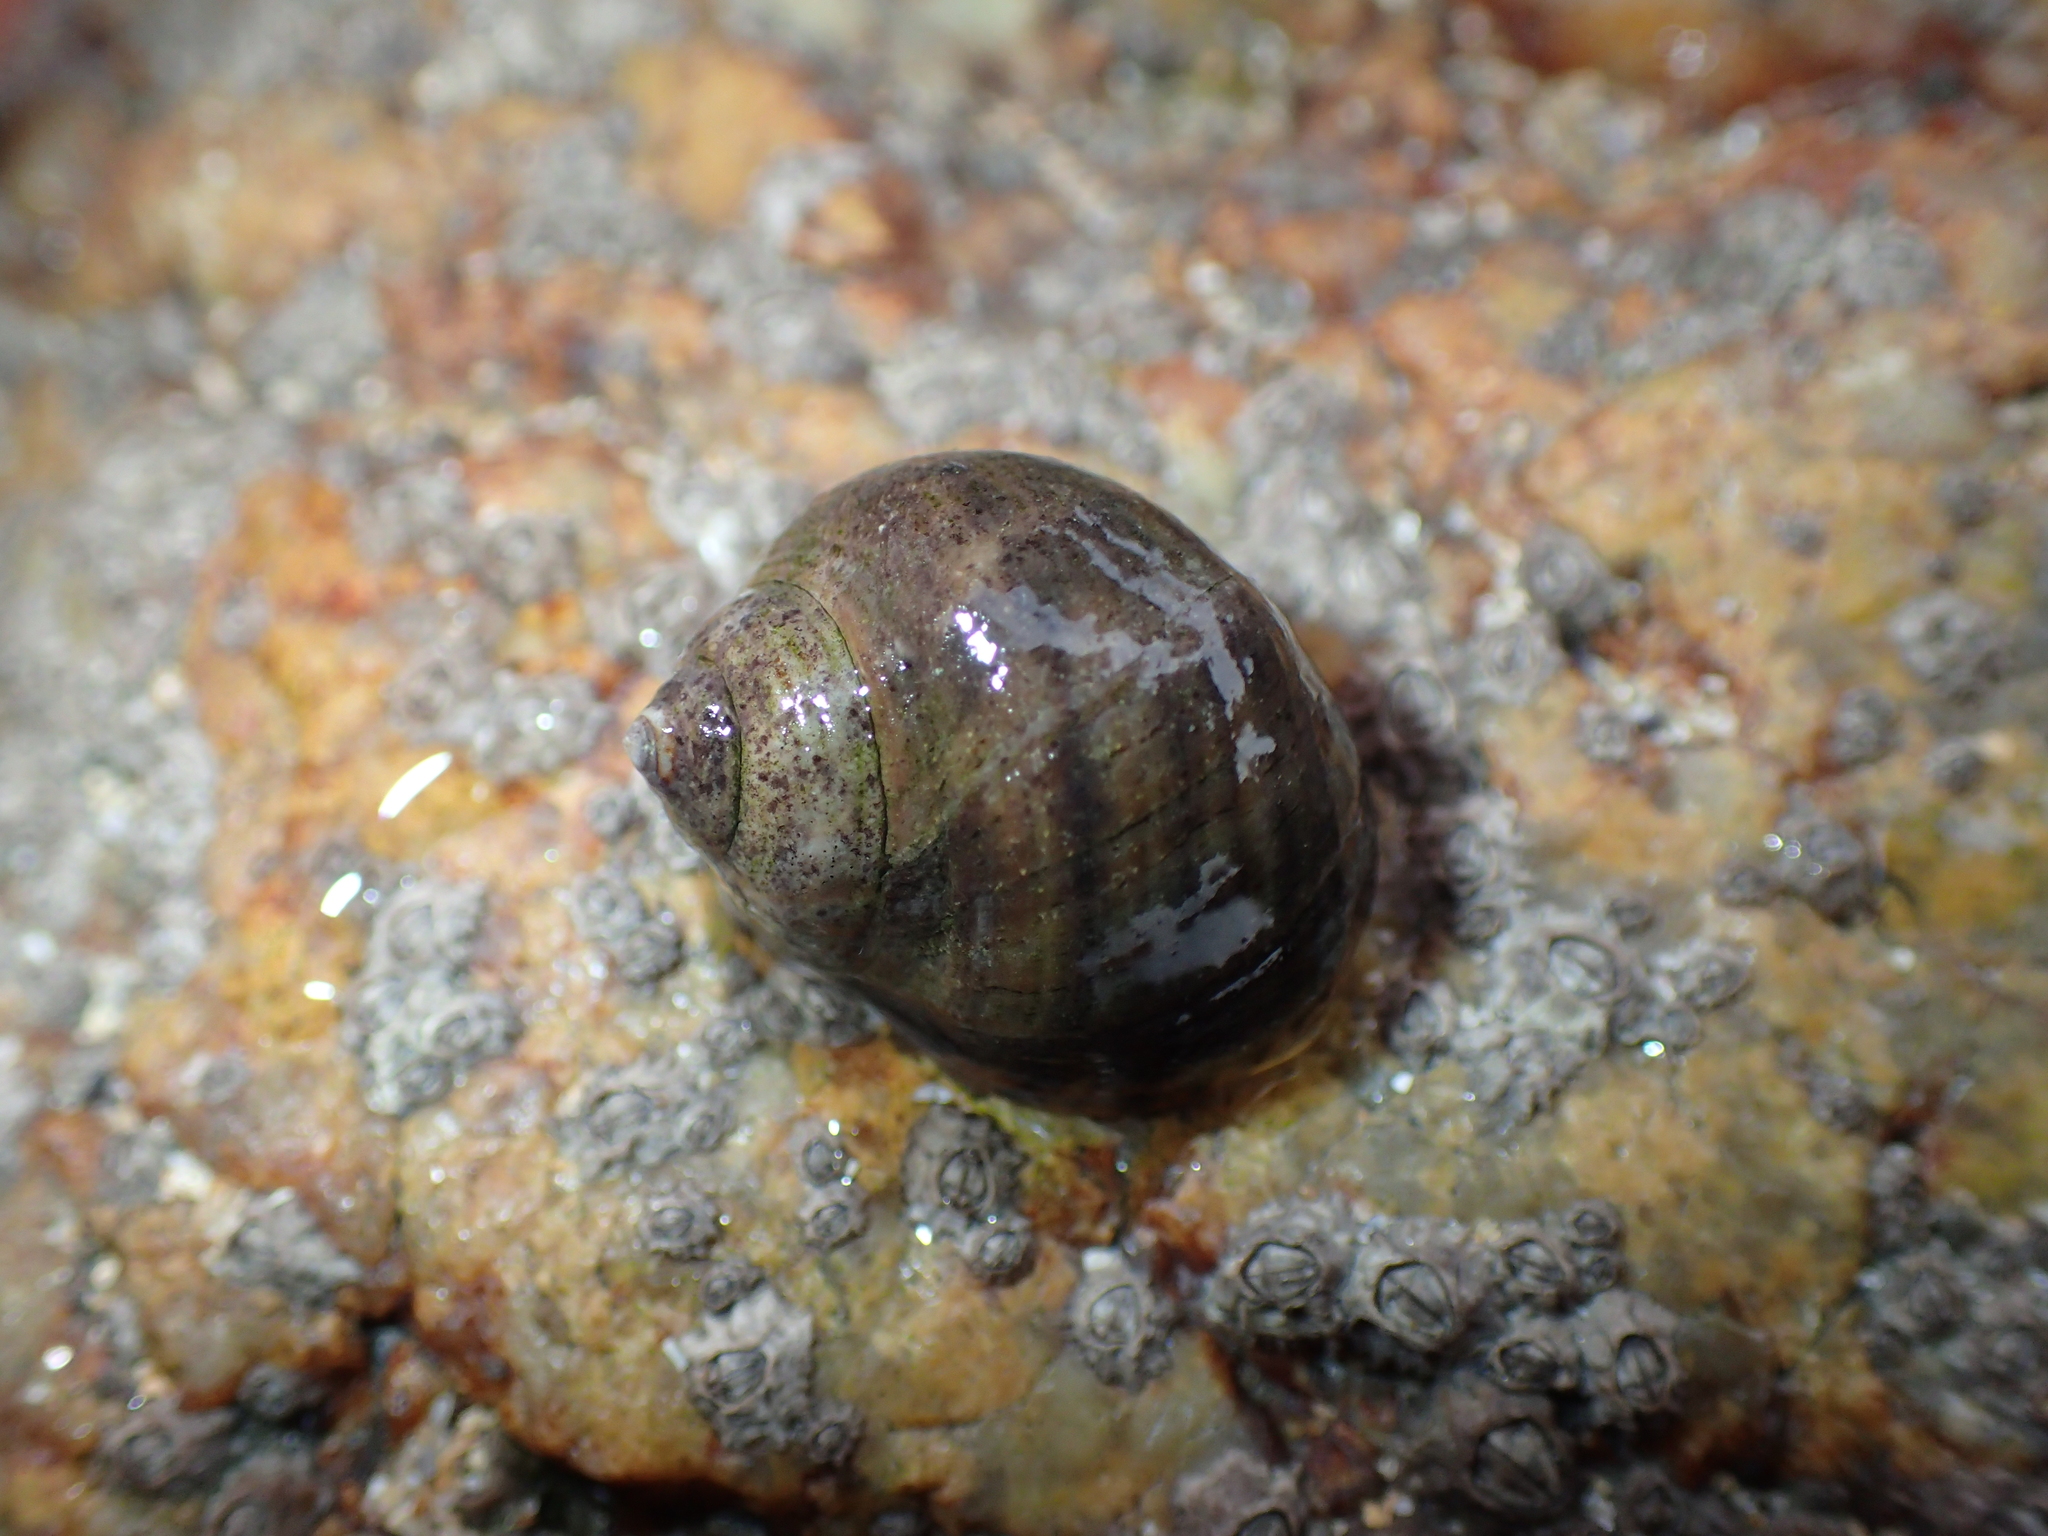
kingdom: Animalia
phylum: Mollusca
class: Gastropoda
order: Littorinimorpha
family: Littorinidae
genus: Littorina
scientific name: Littorina littorea
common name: Common periwinkle
